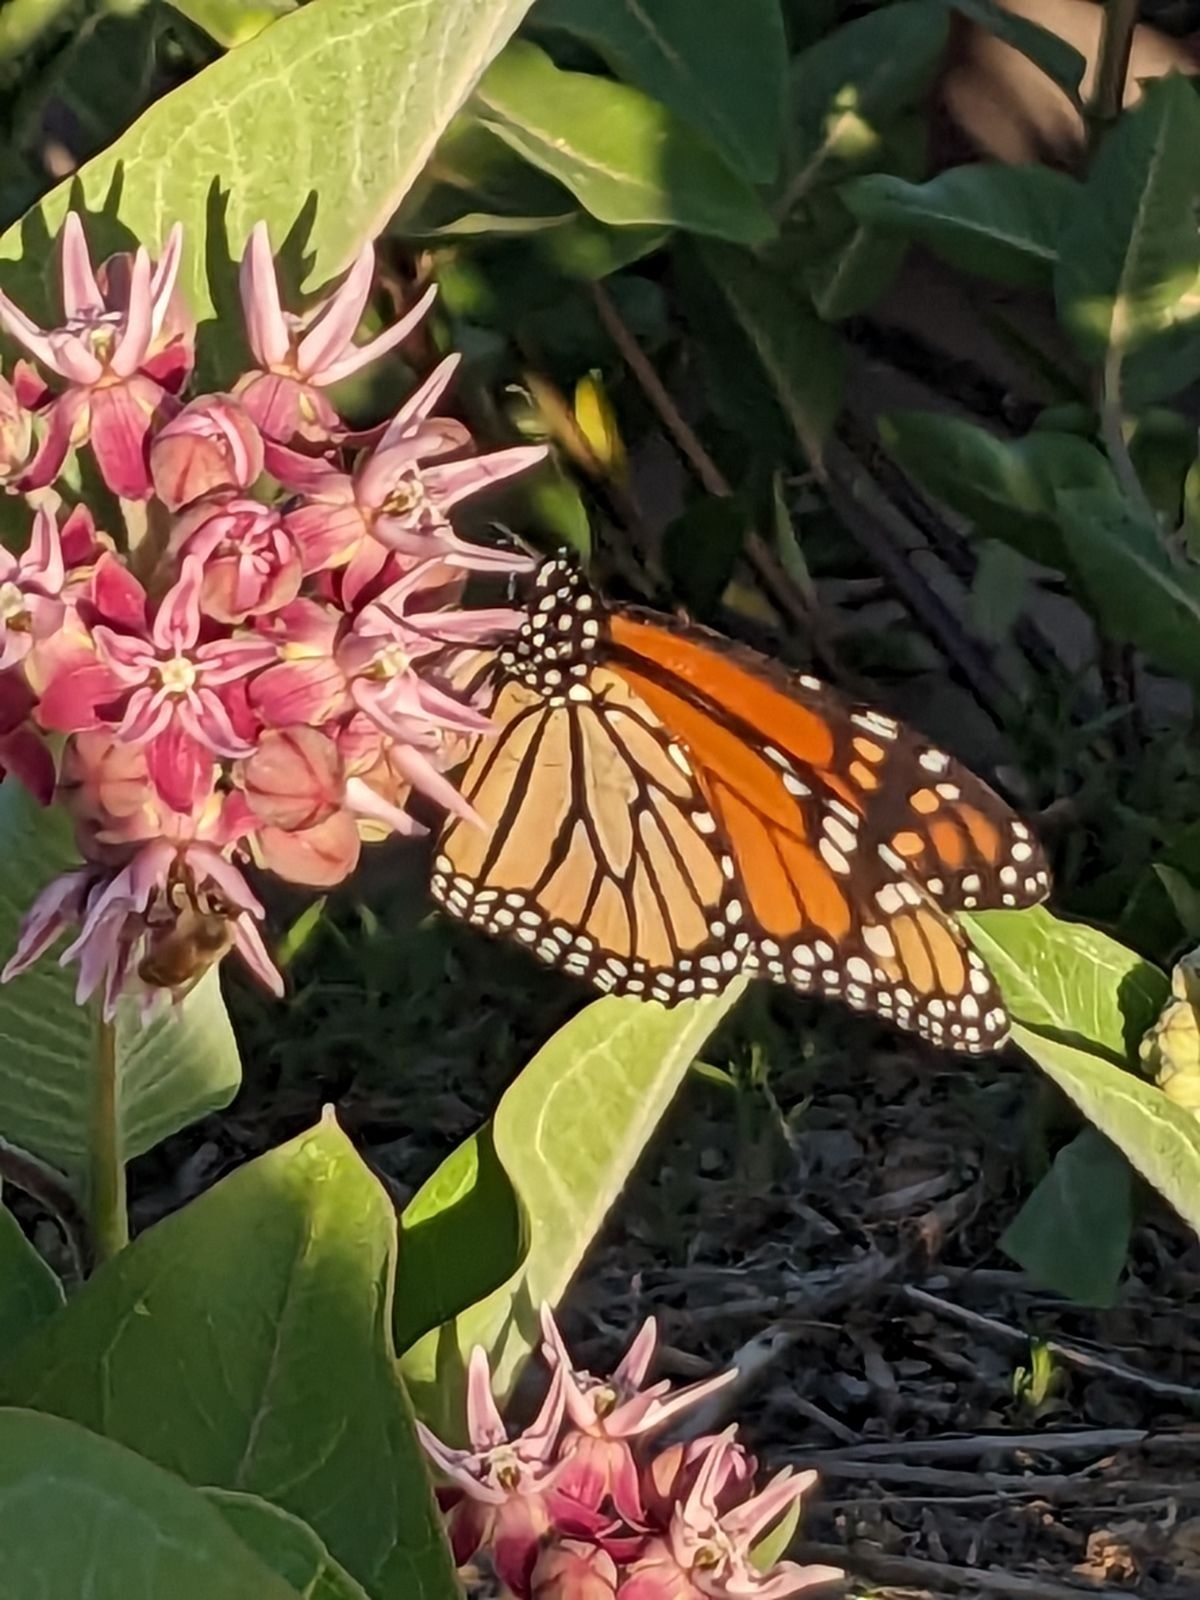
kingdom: Animalia
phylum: Arthropoda
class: Insecta
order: Lepidoptera
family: Nymphalidae
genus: Danaus
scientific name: Danaus plexippus
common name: Monarch
